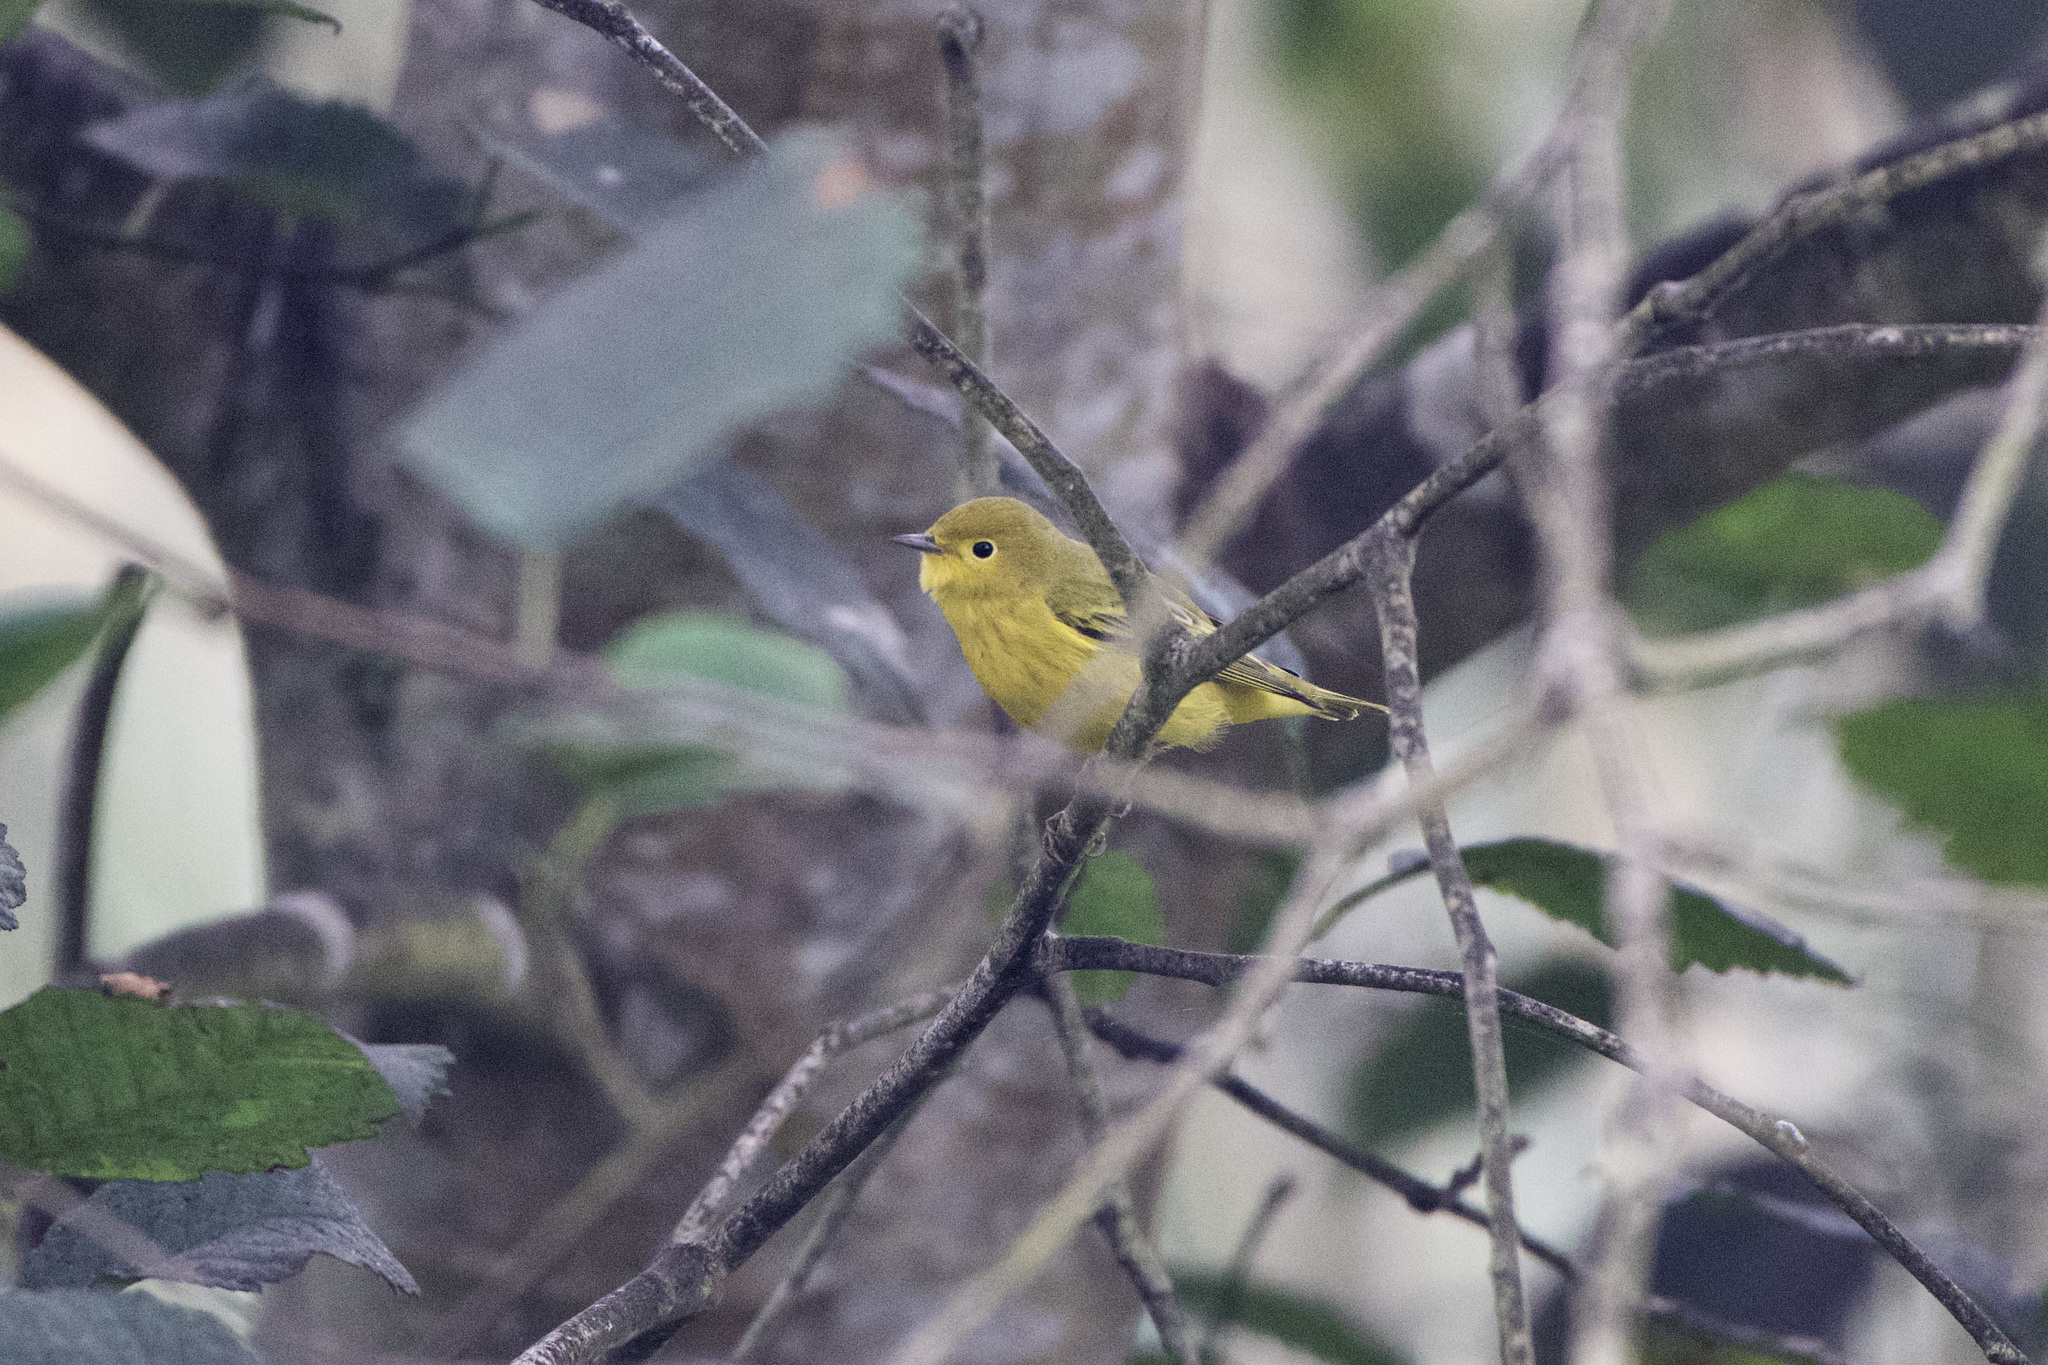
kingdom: Animalia
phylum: Chordata
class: Aves
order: Passeriformes
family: Parulidae
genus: Setophaga
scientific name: Setophaga petechia
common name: Yellow warbler
